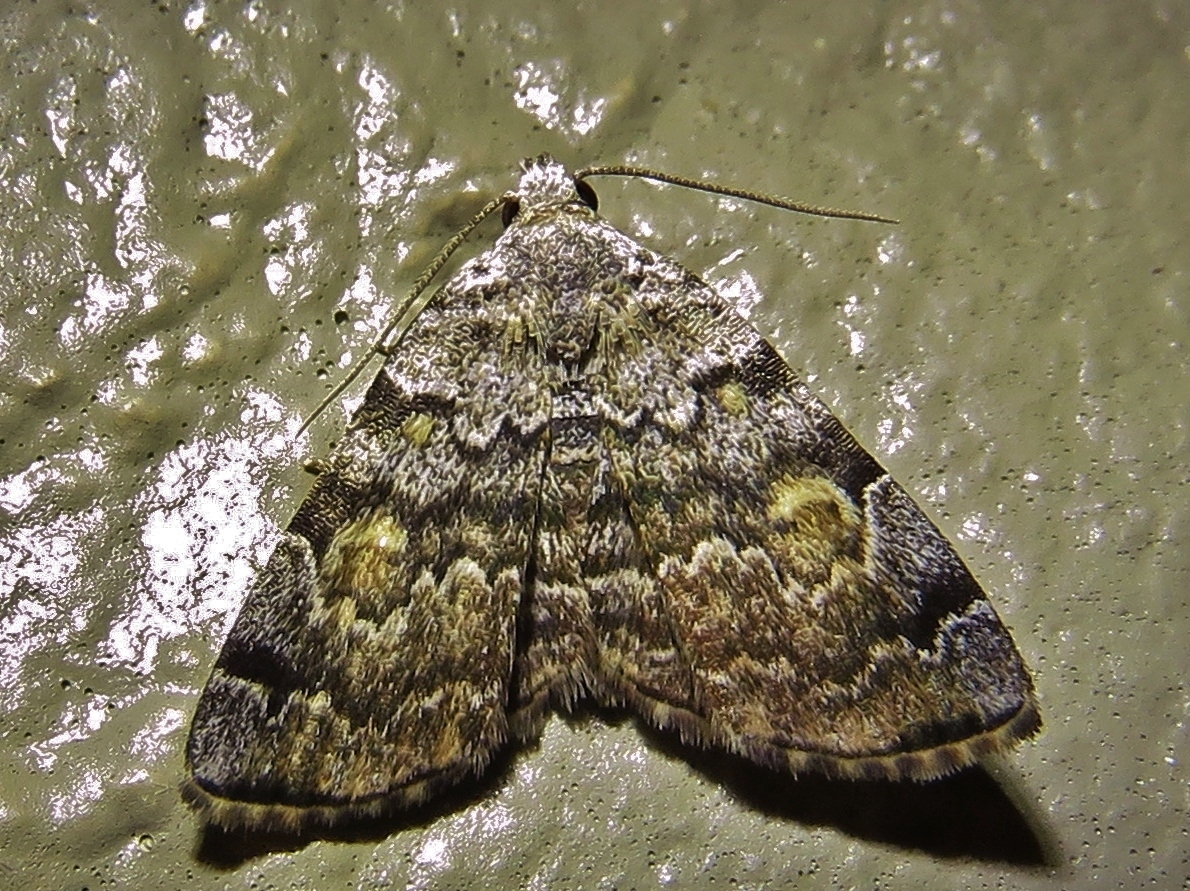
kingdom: Animalia
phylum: Arthropoda
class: Insecta
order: Lepidoptera
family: Erebidae
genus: Idia
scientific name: Idia americalis
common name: American idia moth
